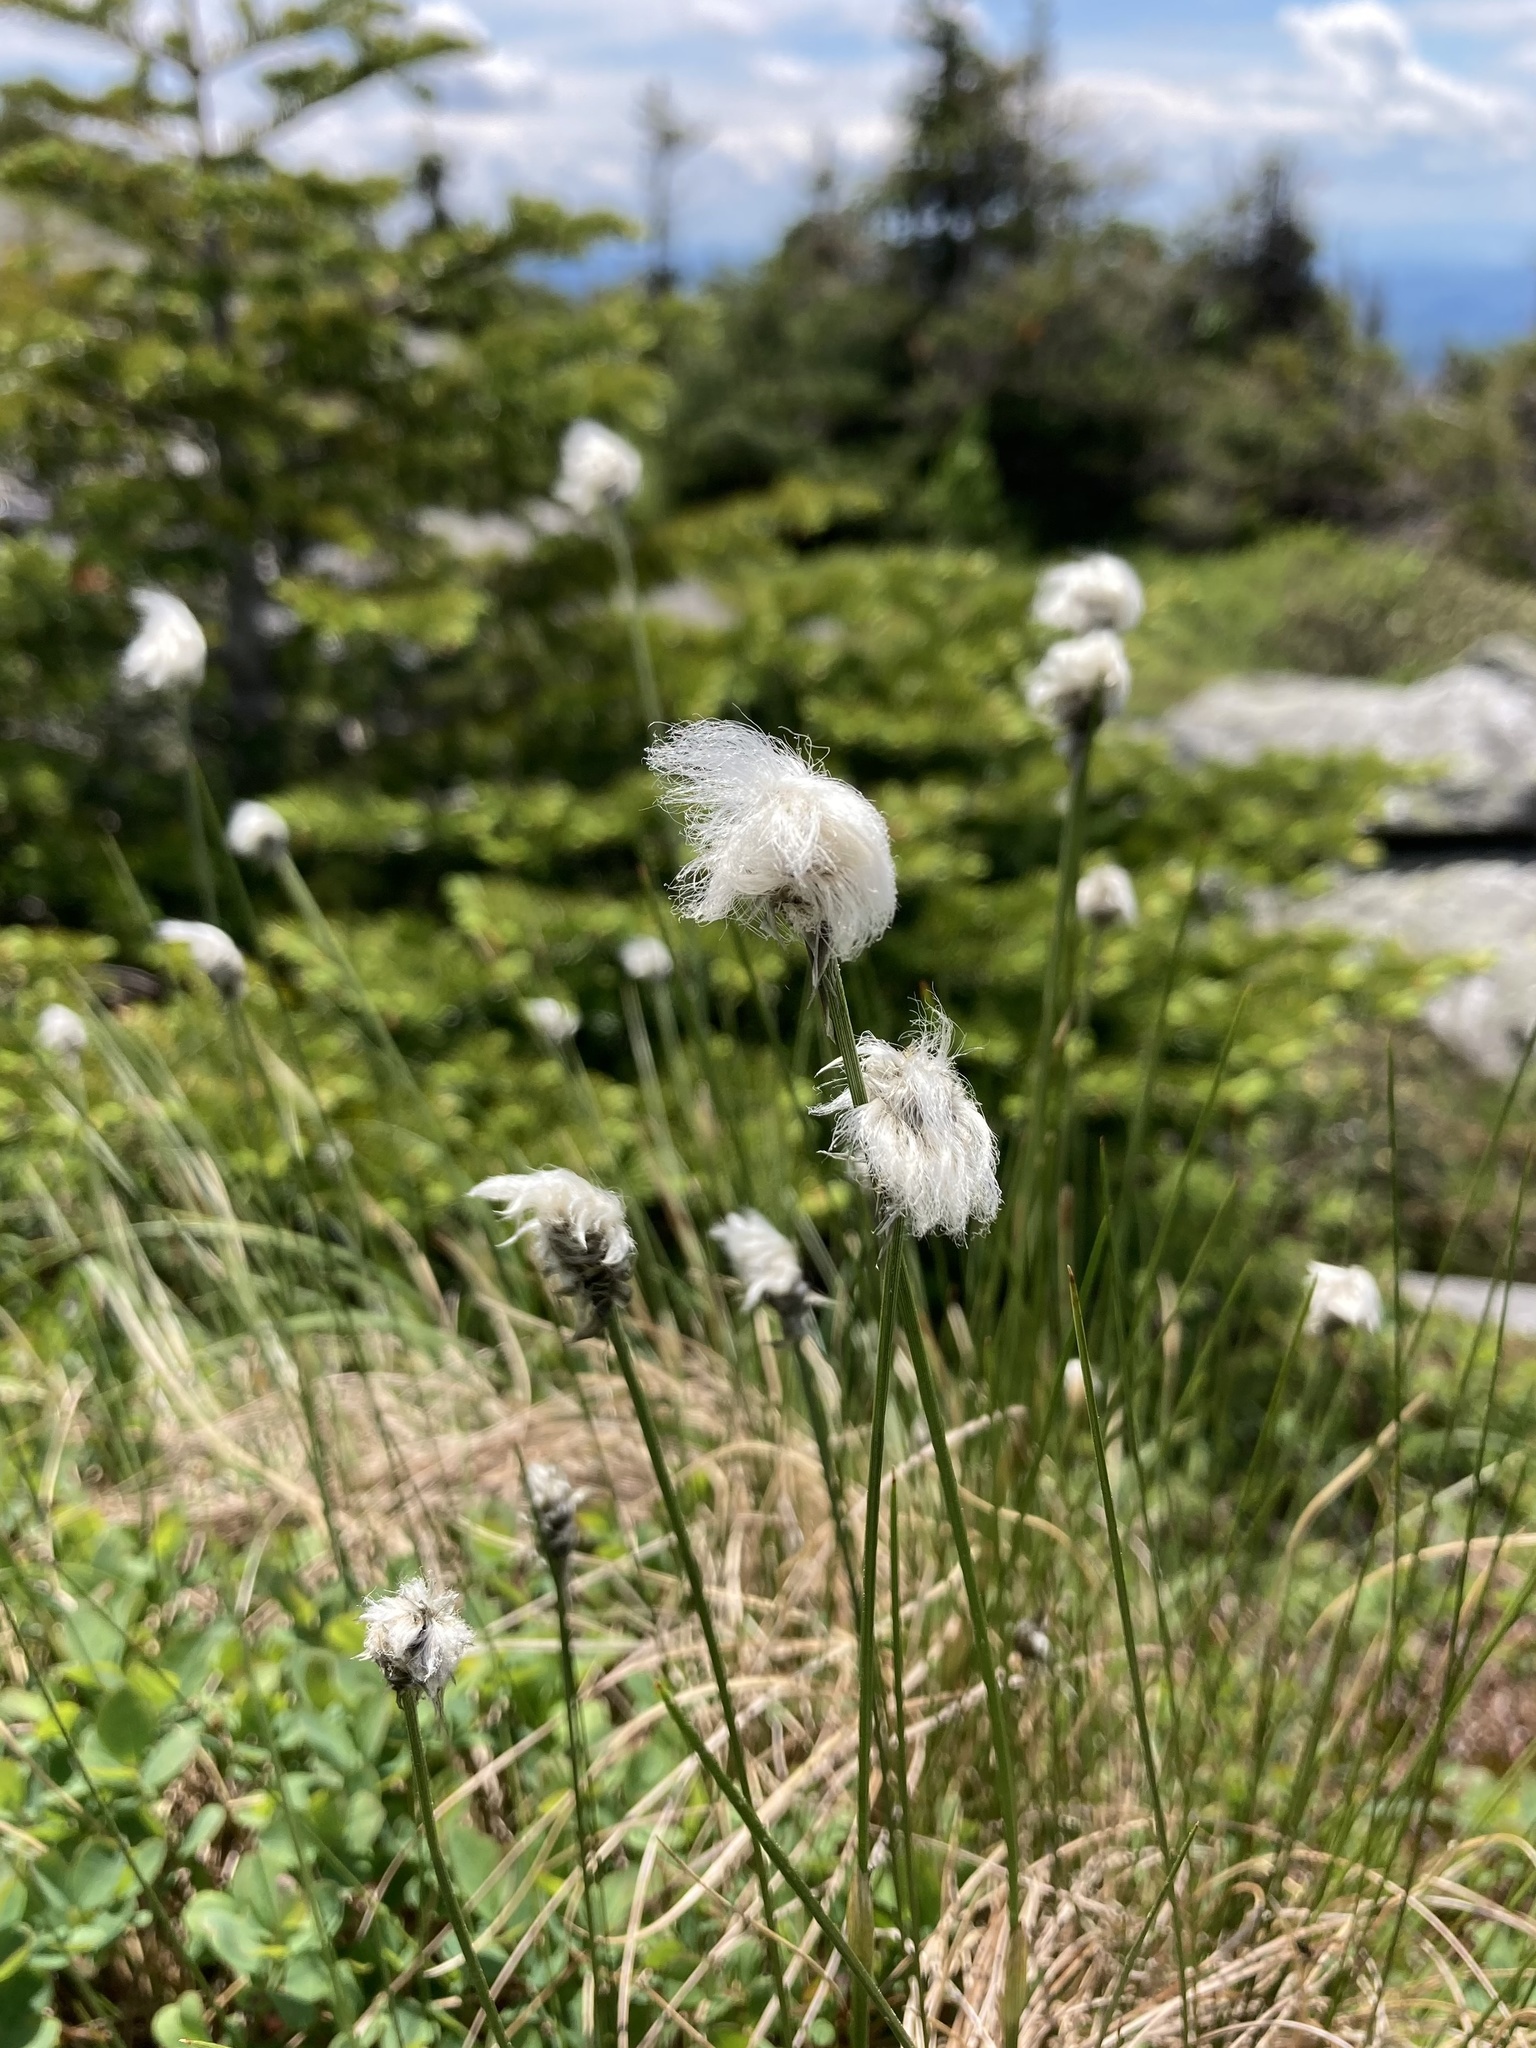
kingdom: Plantae
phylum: Tracheophyta
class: Liliopsida
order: Poales
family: Cyperaceae
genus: Eriophorum
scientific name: Eriophorum vaginatum
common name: Hare's-tail cottongrass
